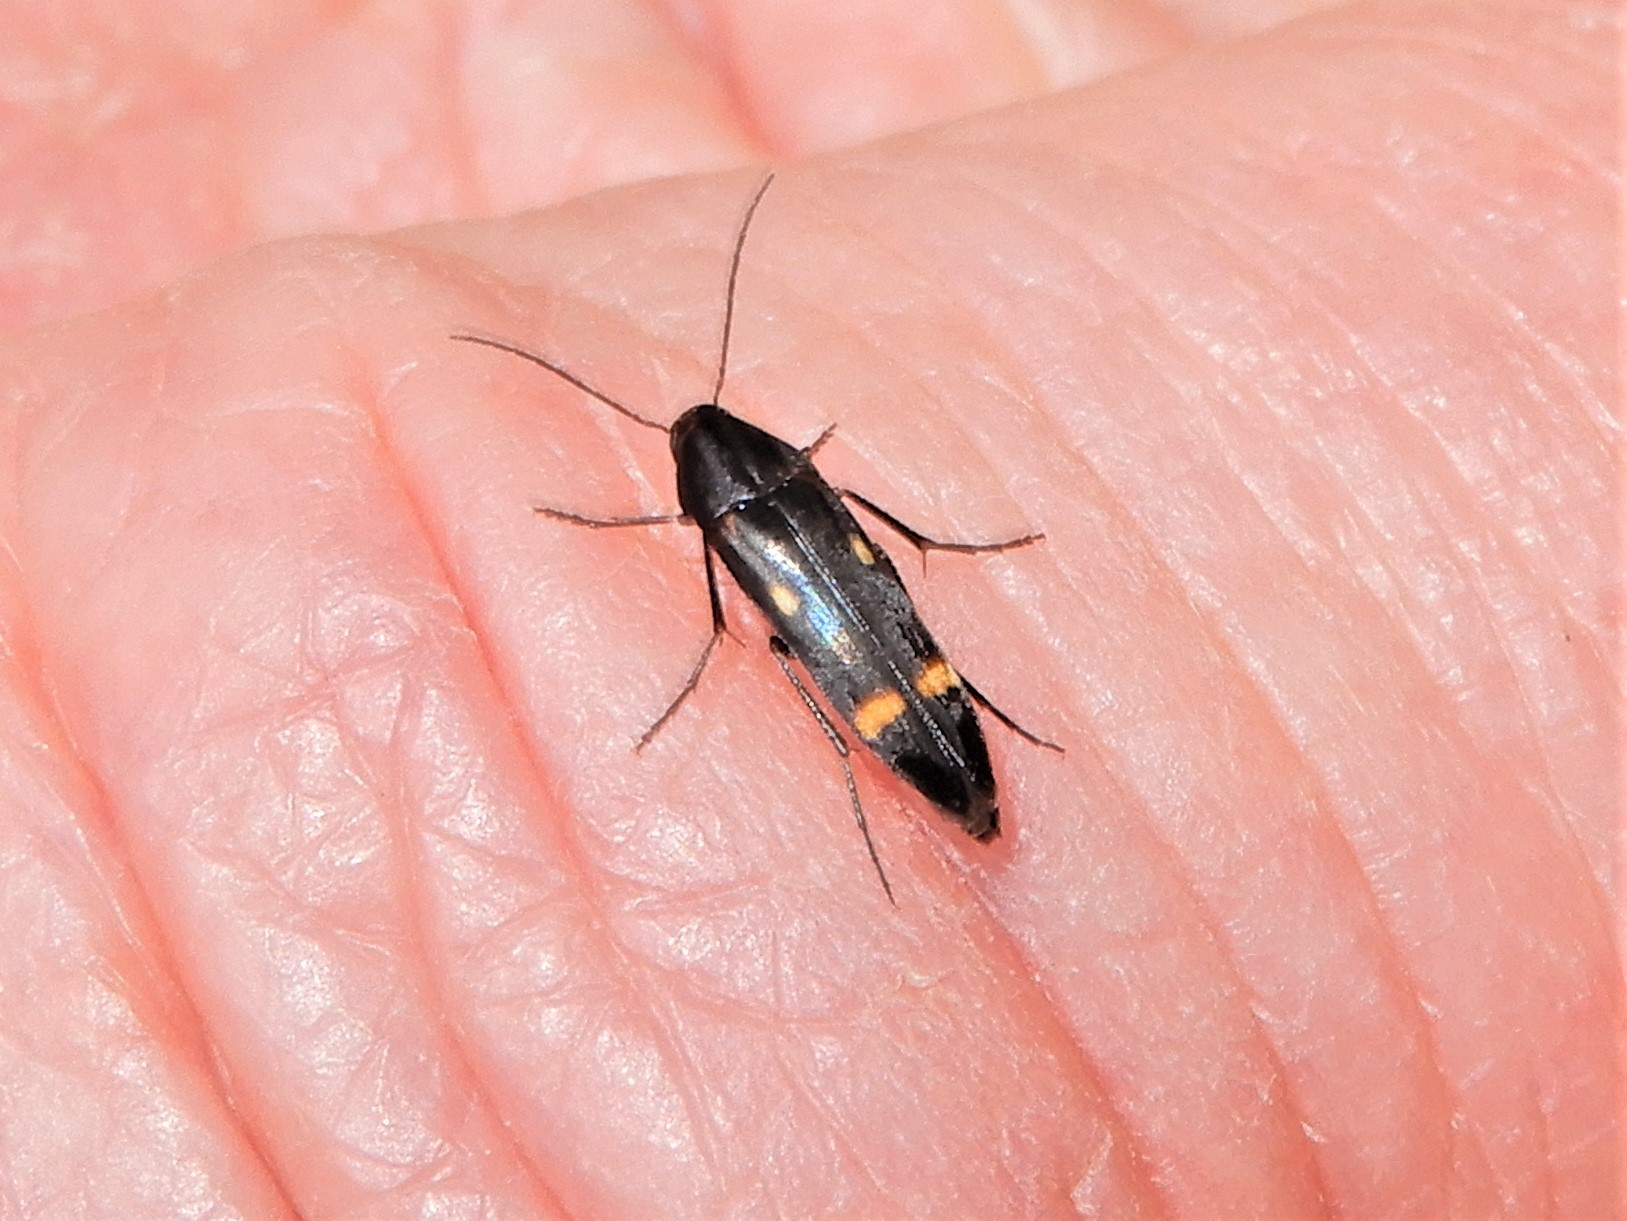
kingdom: Animalia
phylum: Arthropoda
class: Insecta
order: Coleoptera
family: Melandryidae
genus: Ctenoplectron
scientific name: Ctenoplectron
